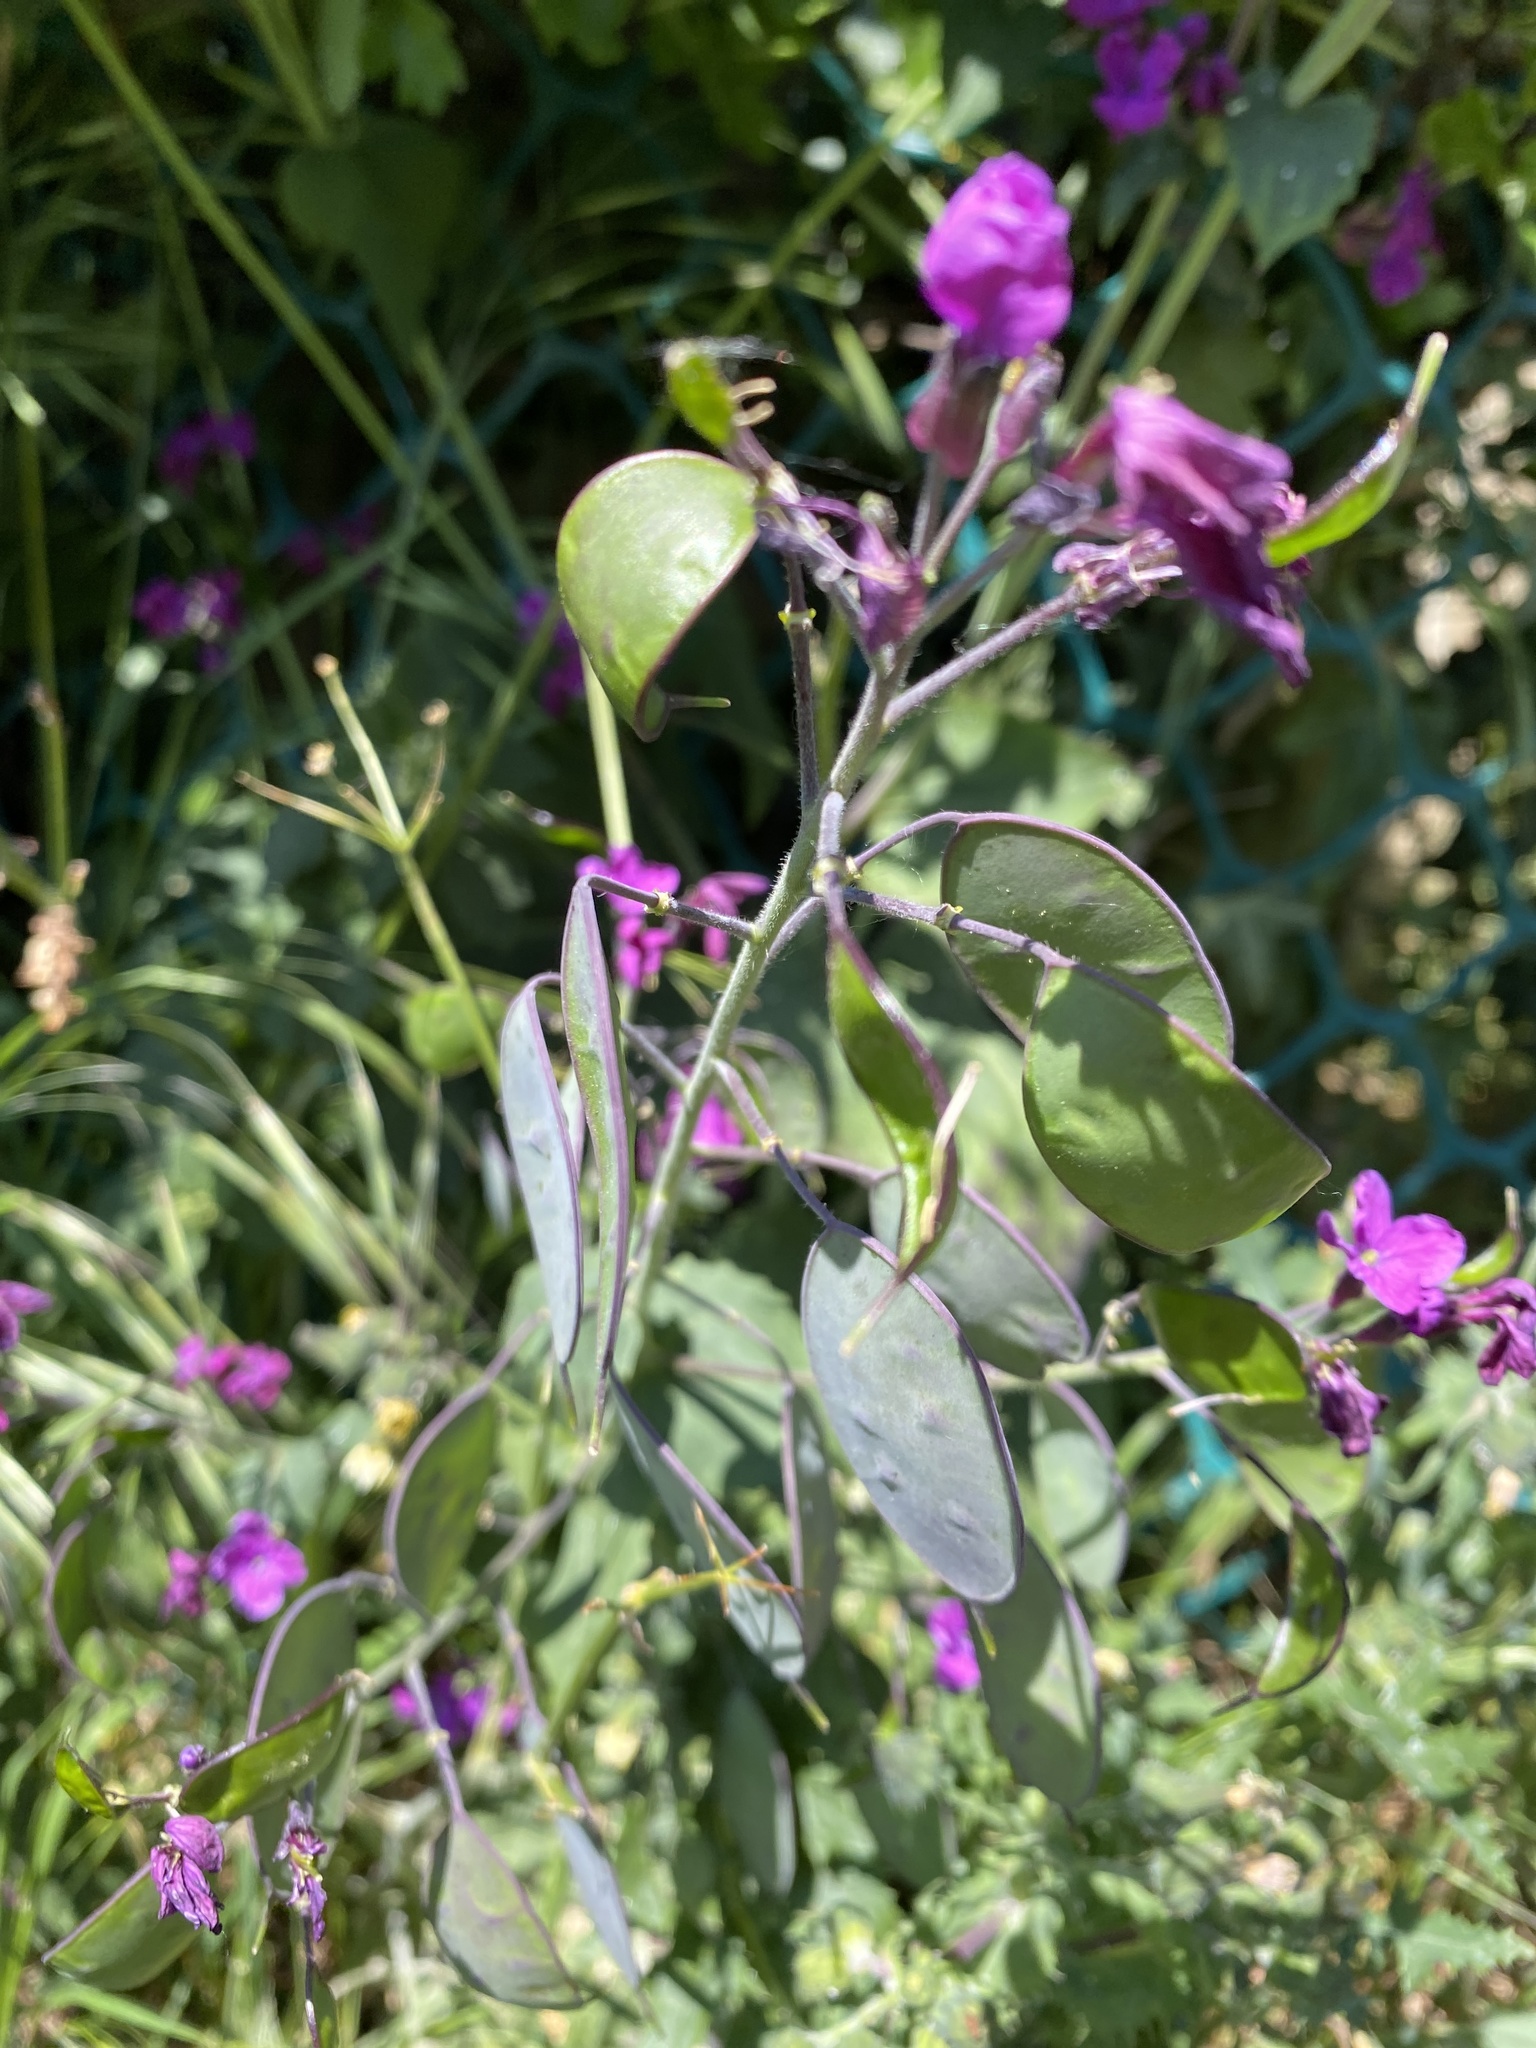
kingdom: Plantae
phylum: Tracheophyta
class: Magnoliopsida
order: Brassicales
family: Brassicaceae
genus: Lunaria
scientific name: Lunaria annua
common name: Honesty
